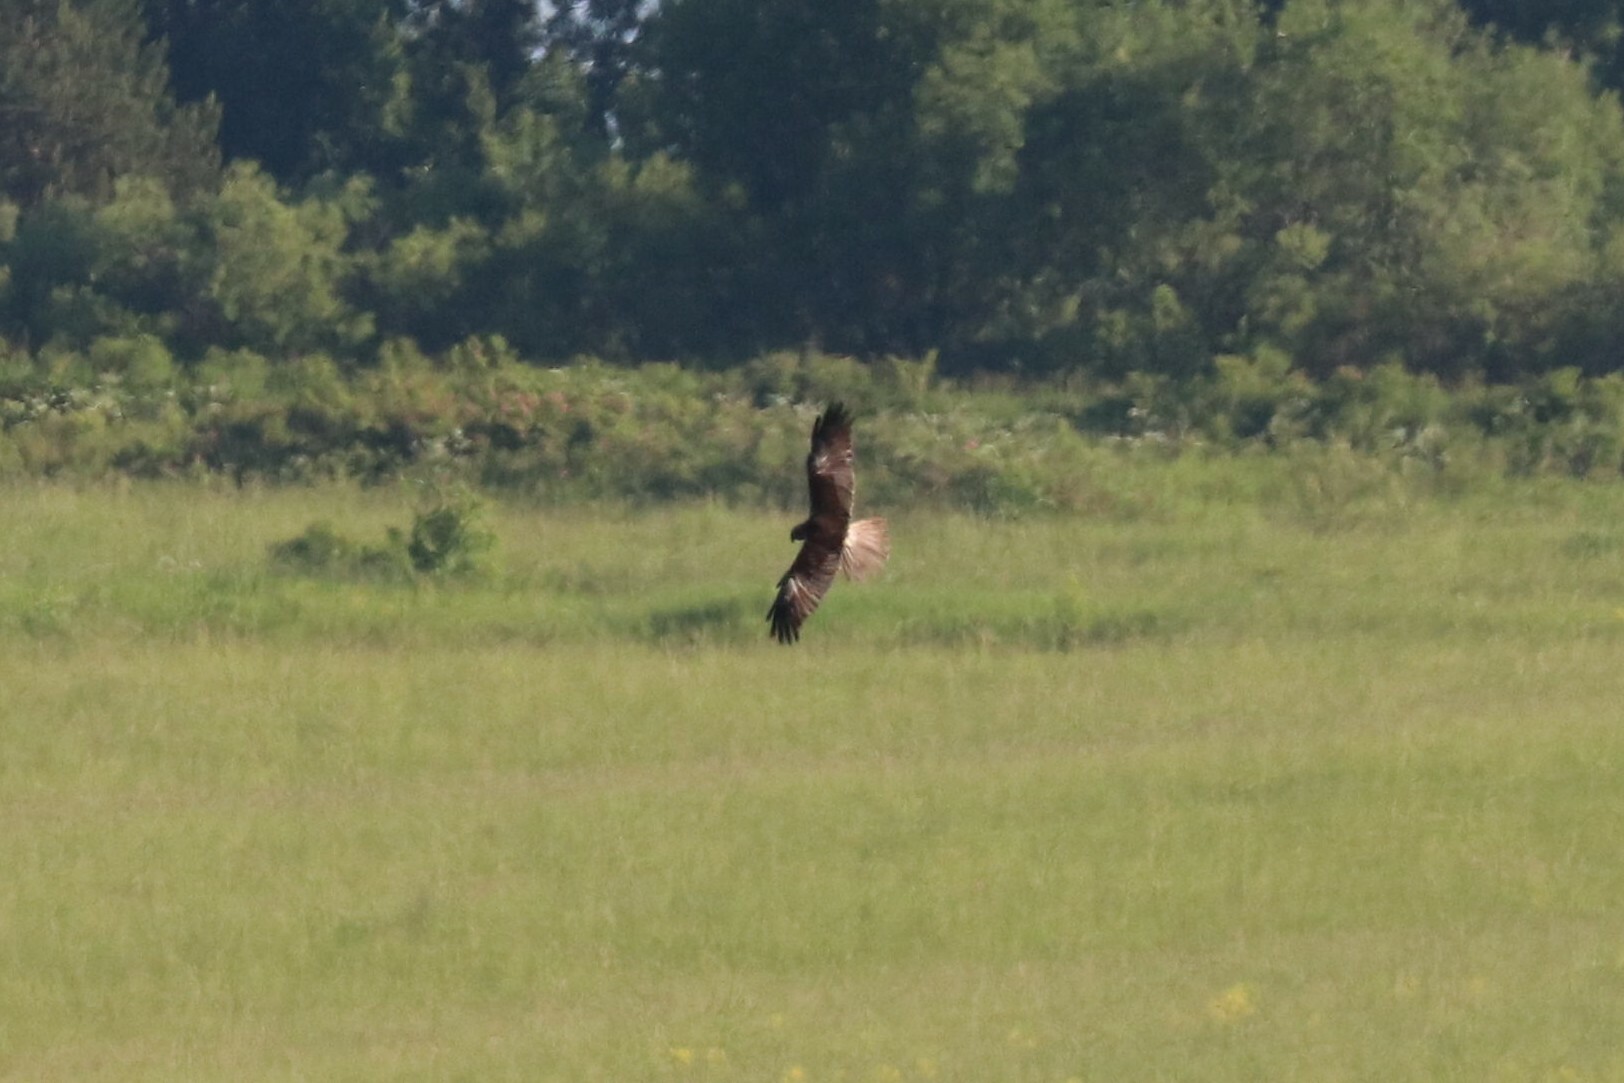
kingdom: Animalia
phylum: Chordata
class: Aves
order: Accipitriformes
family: Accipitridae
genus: Circus
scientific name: Circus aeruginosus
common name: Western marsh harrier
